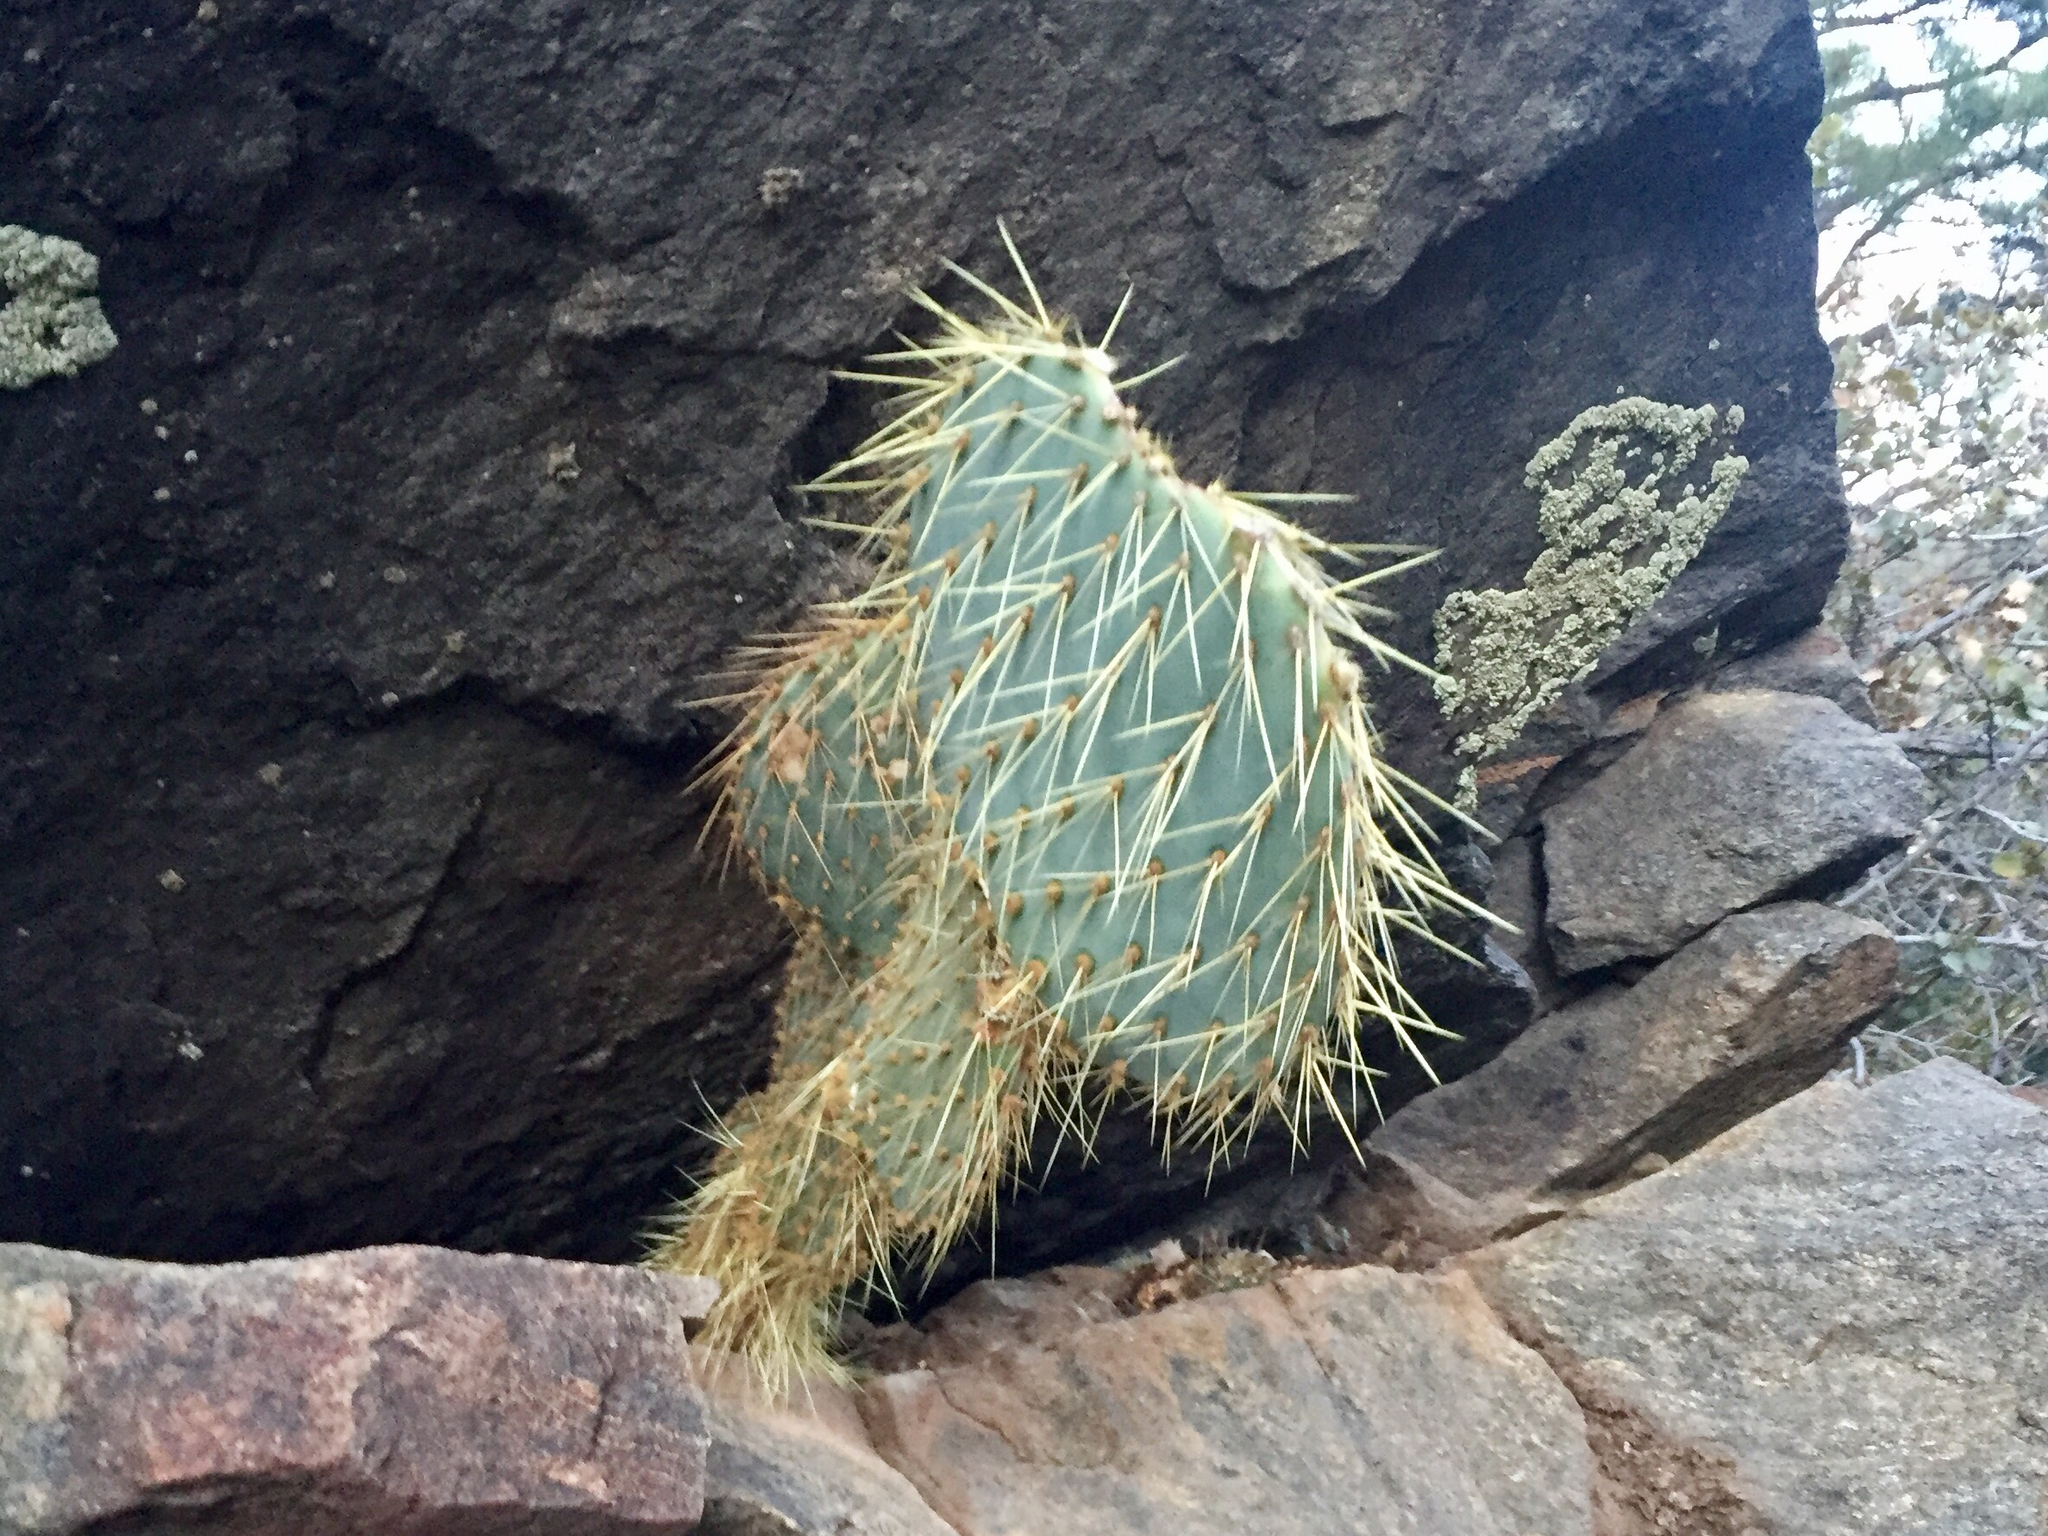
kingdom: Plantae
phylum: Tracheophyta
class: Magnoliopsida
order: Caryophyllales
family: Cactaceae
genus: Opuntia
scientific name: Opuntia polyacantha
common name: Plains prickly-pear
